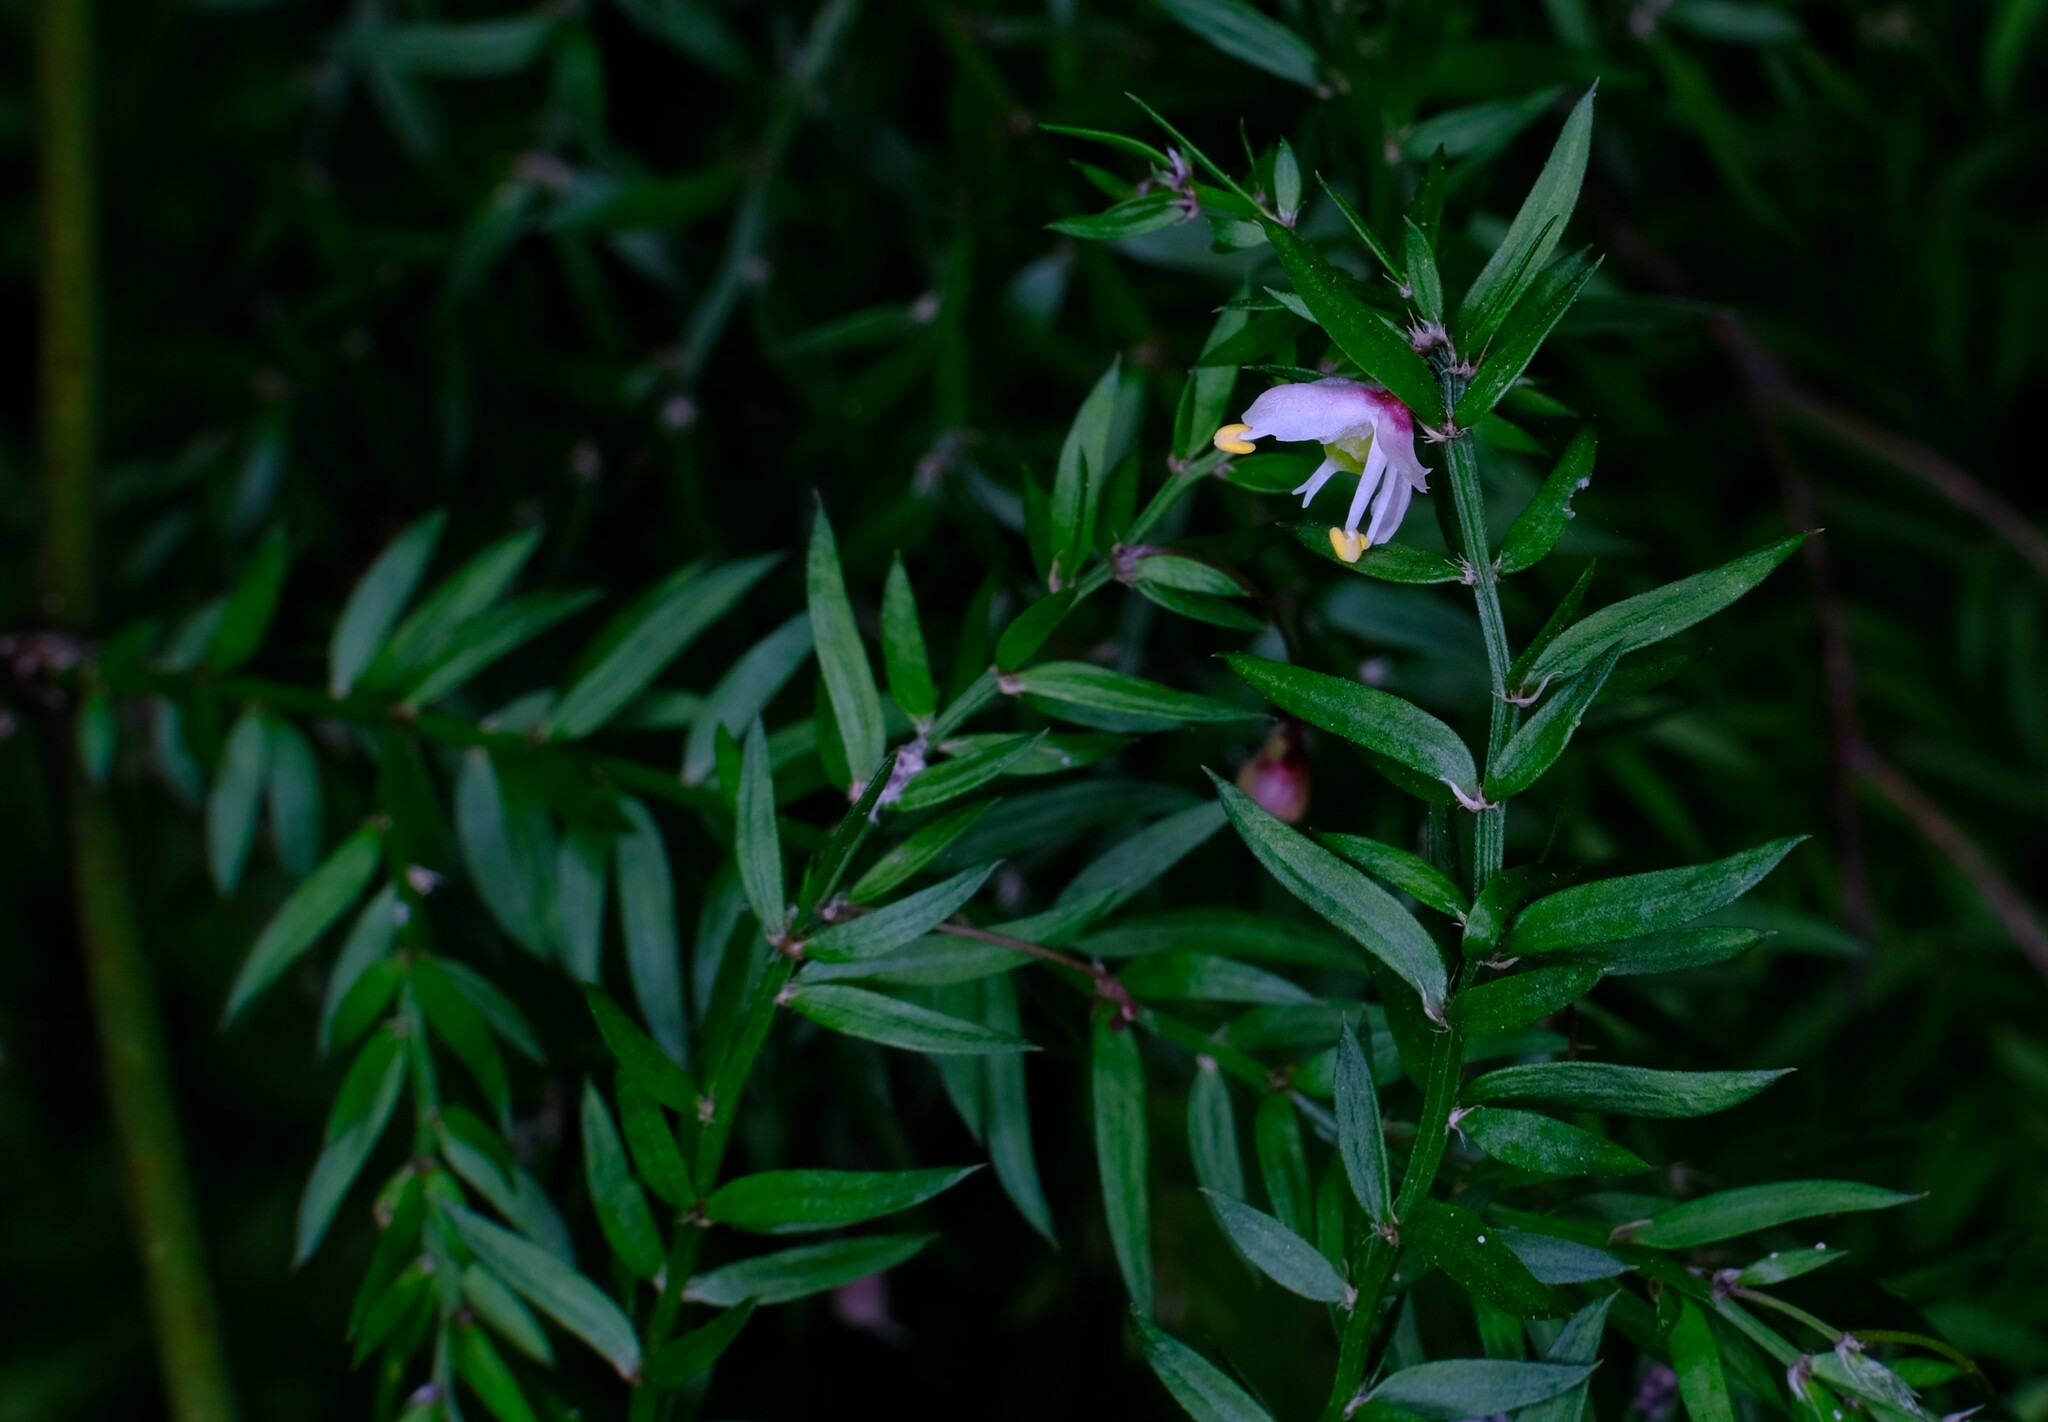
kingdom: Plantae
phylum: Tracheophyta
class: Liliopsida
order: Asparagales
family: Asparagaceae
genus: Asparagus
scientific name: Asparagus scandens
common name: Asparagus-fern
